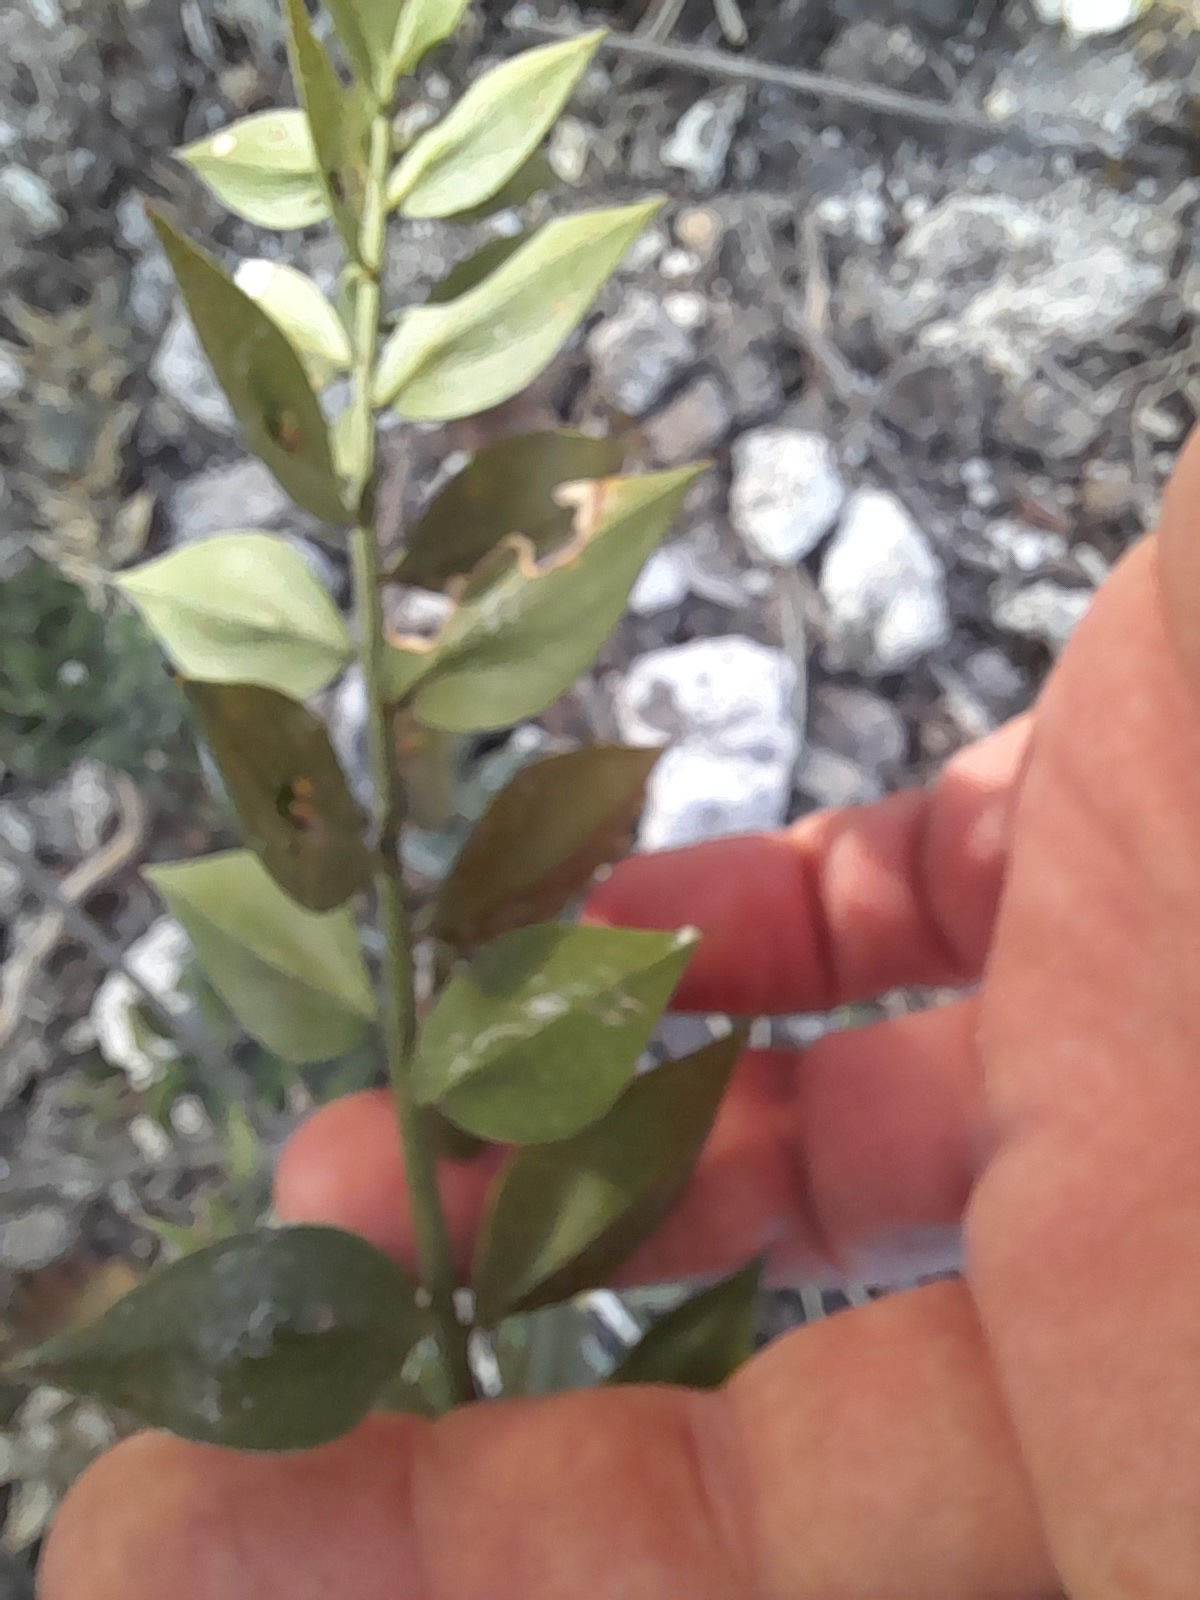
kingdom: Plantae
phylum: Tracheophyta
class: Liliopsida
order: Asparagales
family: Asparagaceae
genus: Ruscus
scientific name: Ruscus aculeatus
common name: Butcher's-broom
